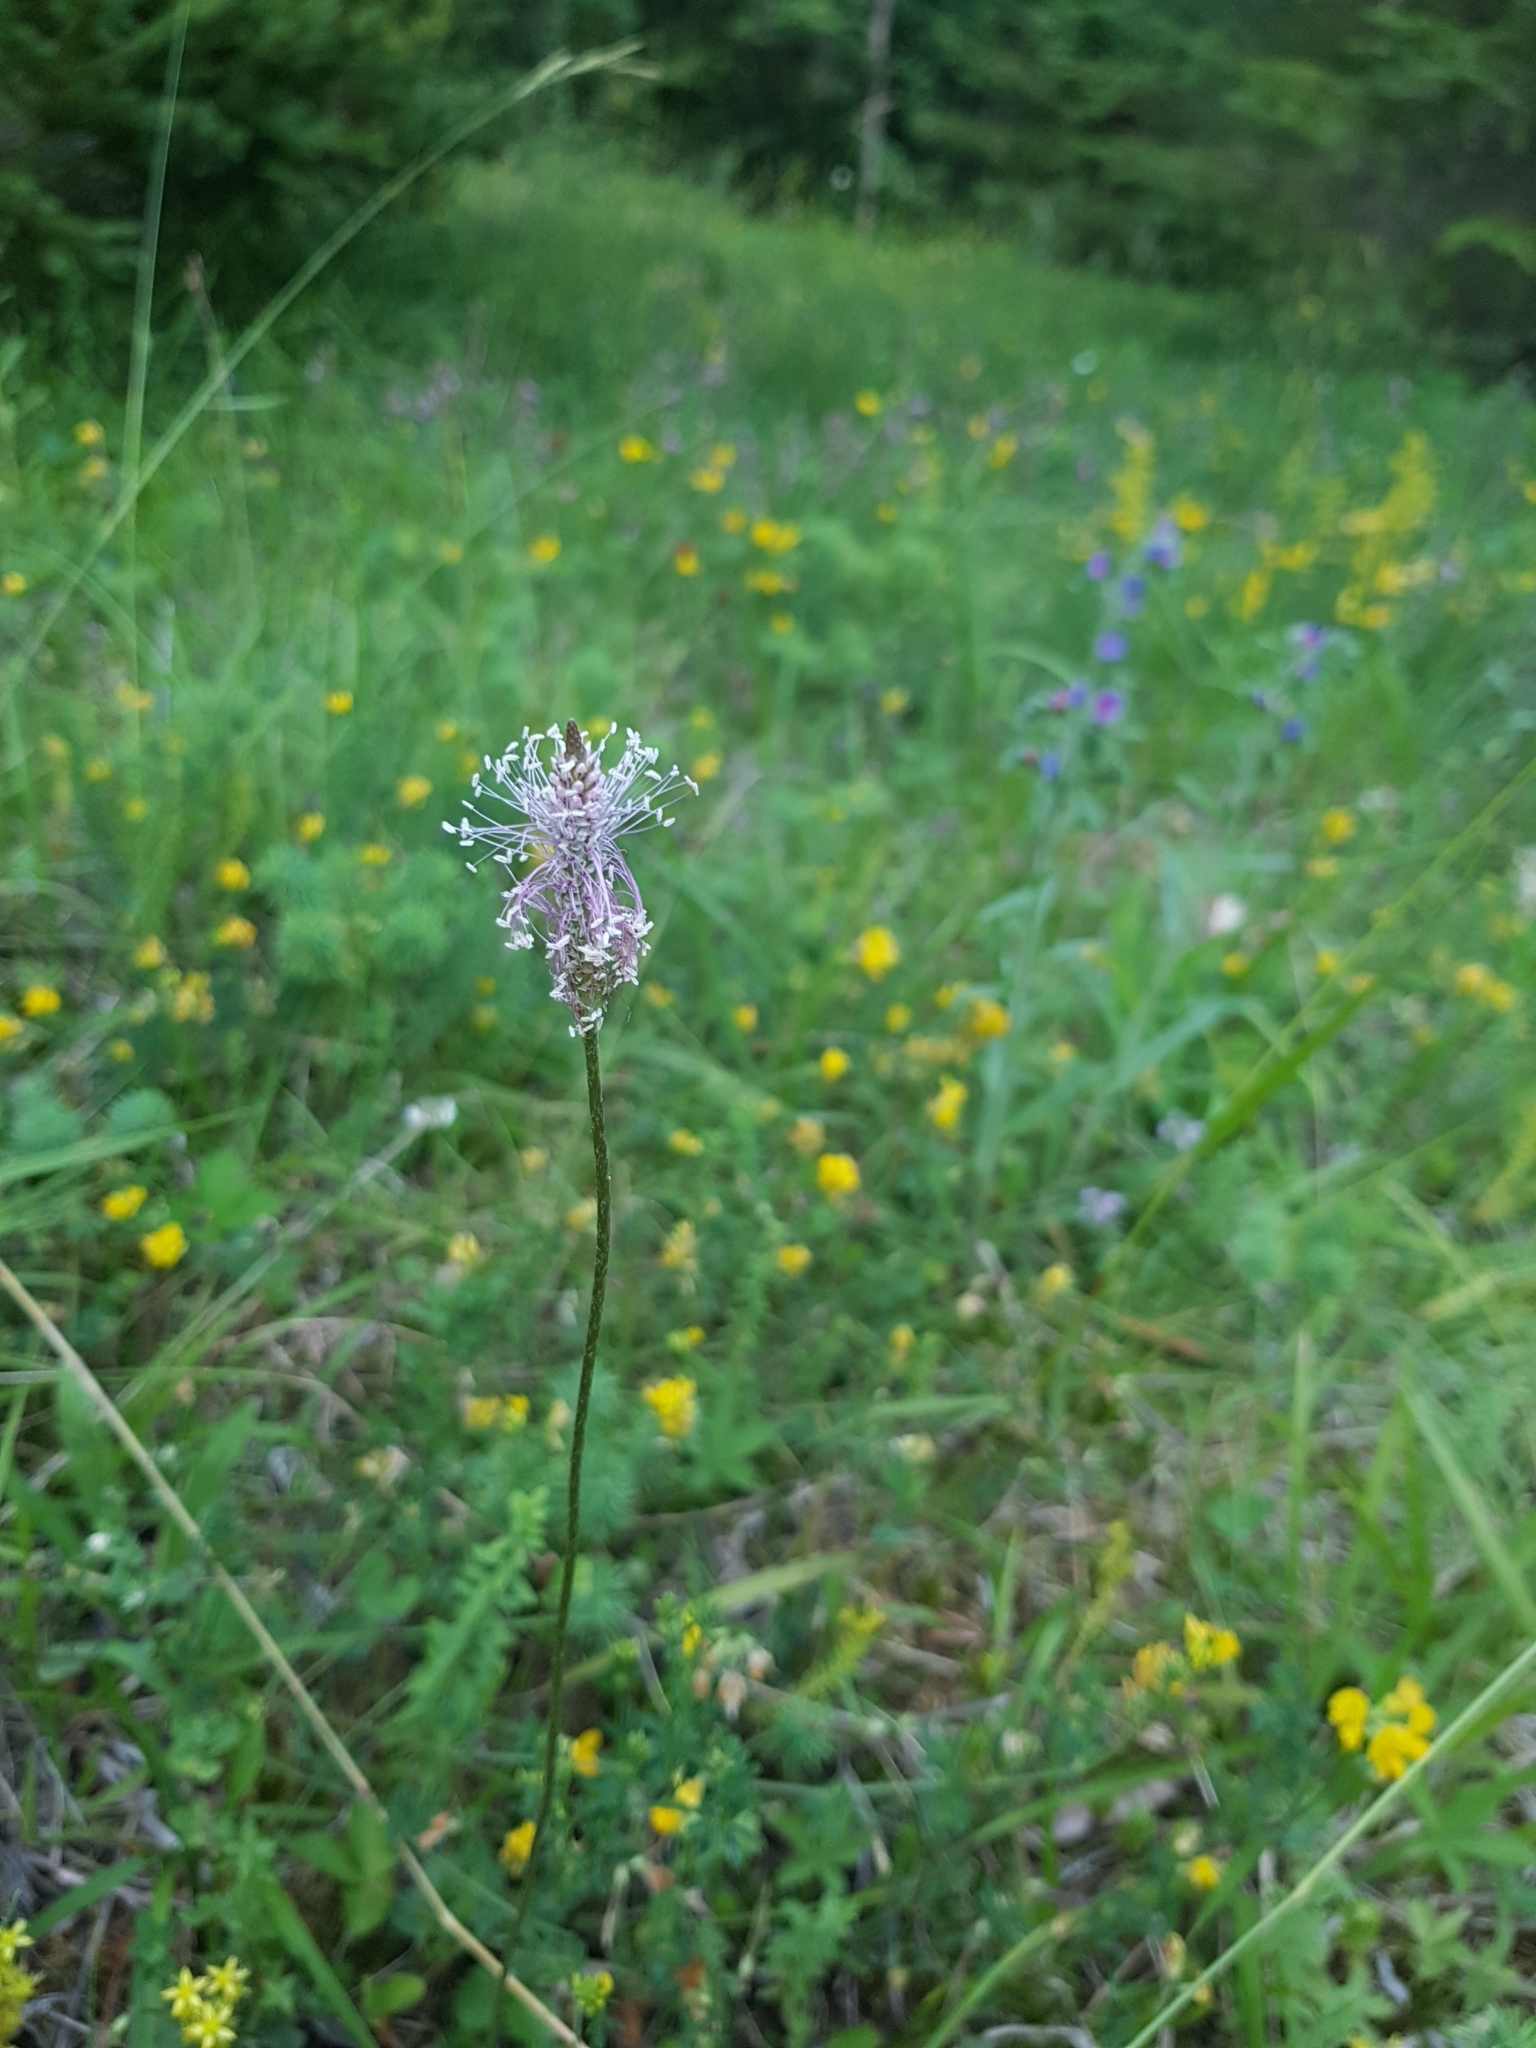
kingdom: Plantae
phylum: Tracheophyta
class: Magnoliopsida
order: Lamiales
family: Plantaginaceae
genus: Plantago
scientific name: Plantago media
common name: Hoary plantain
